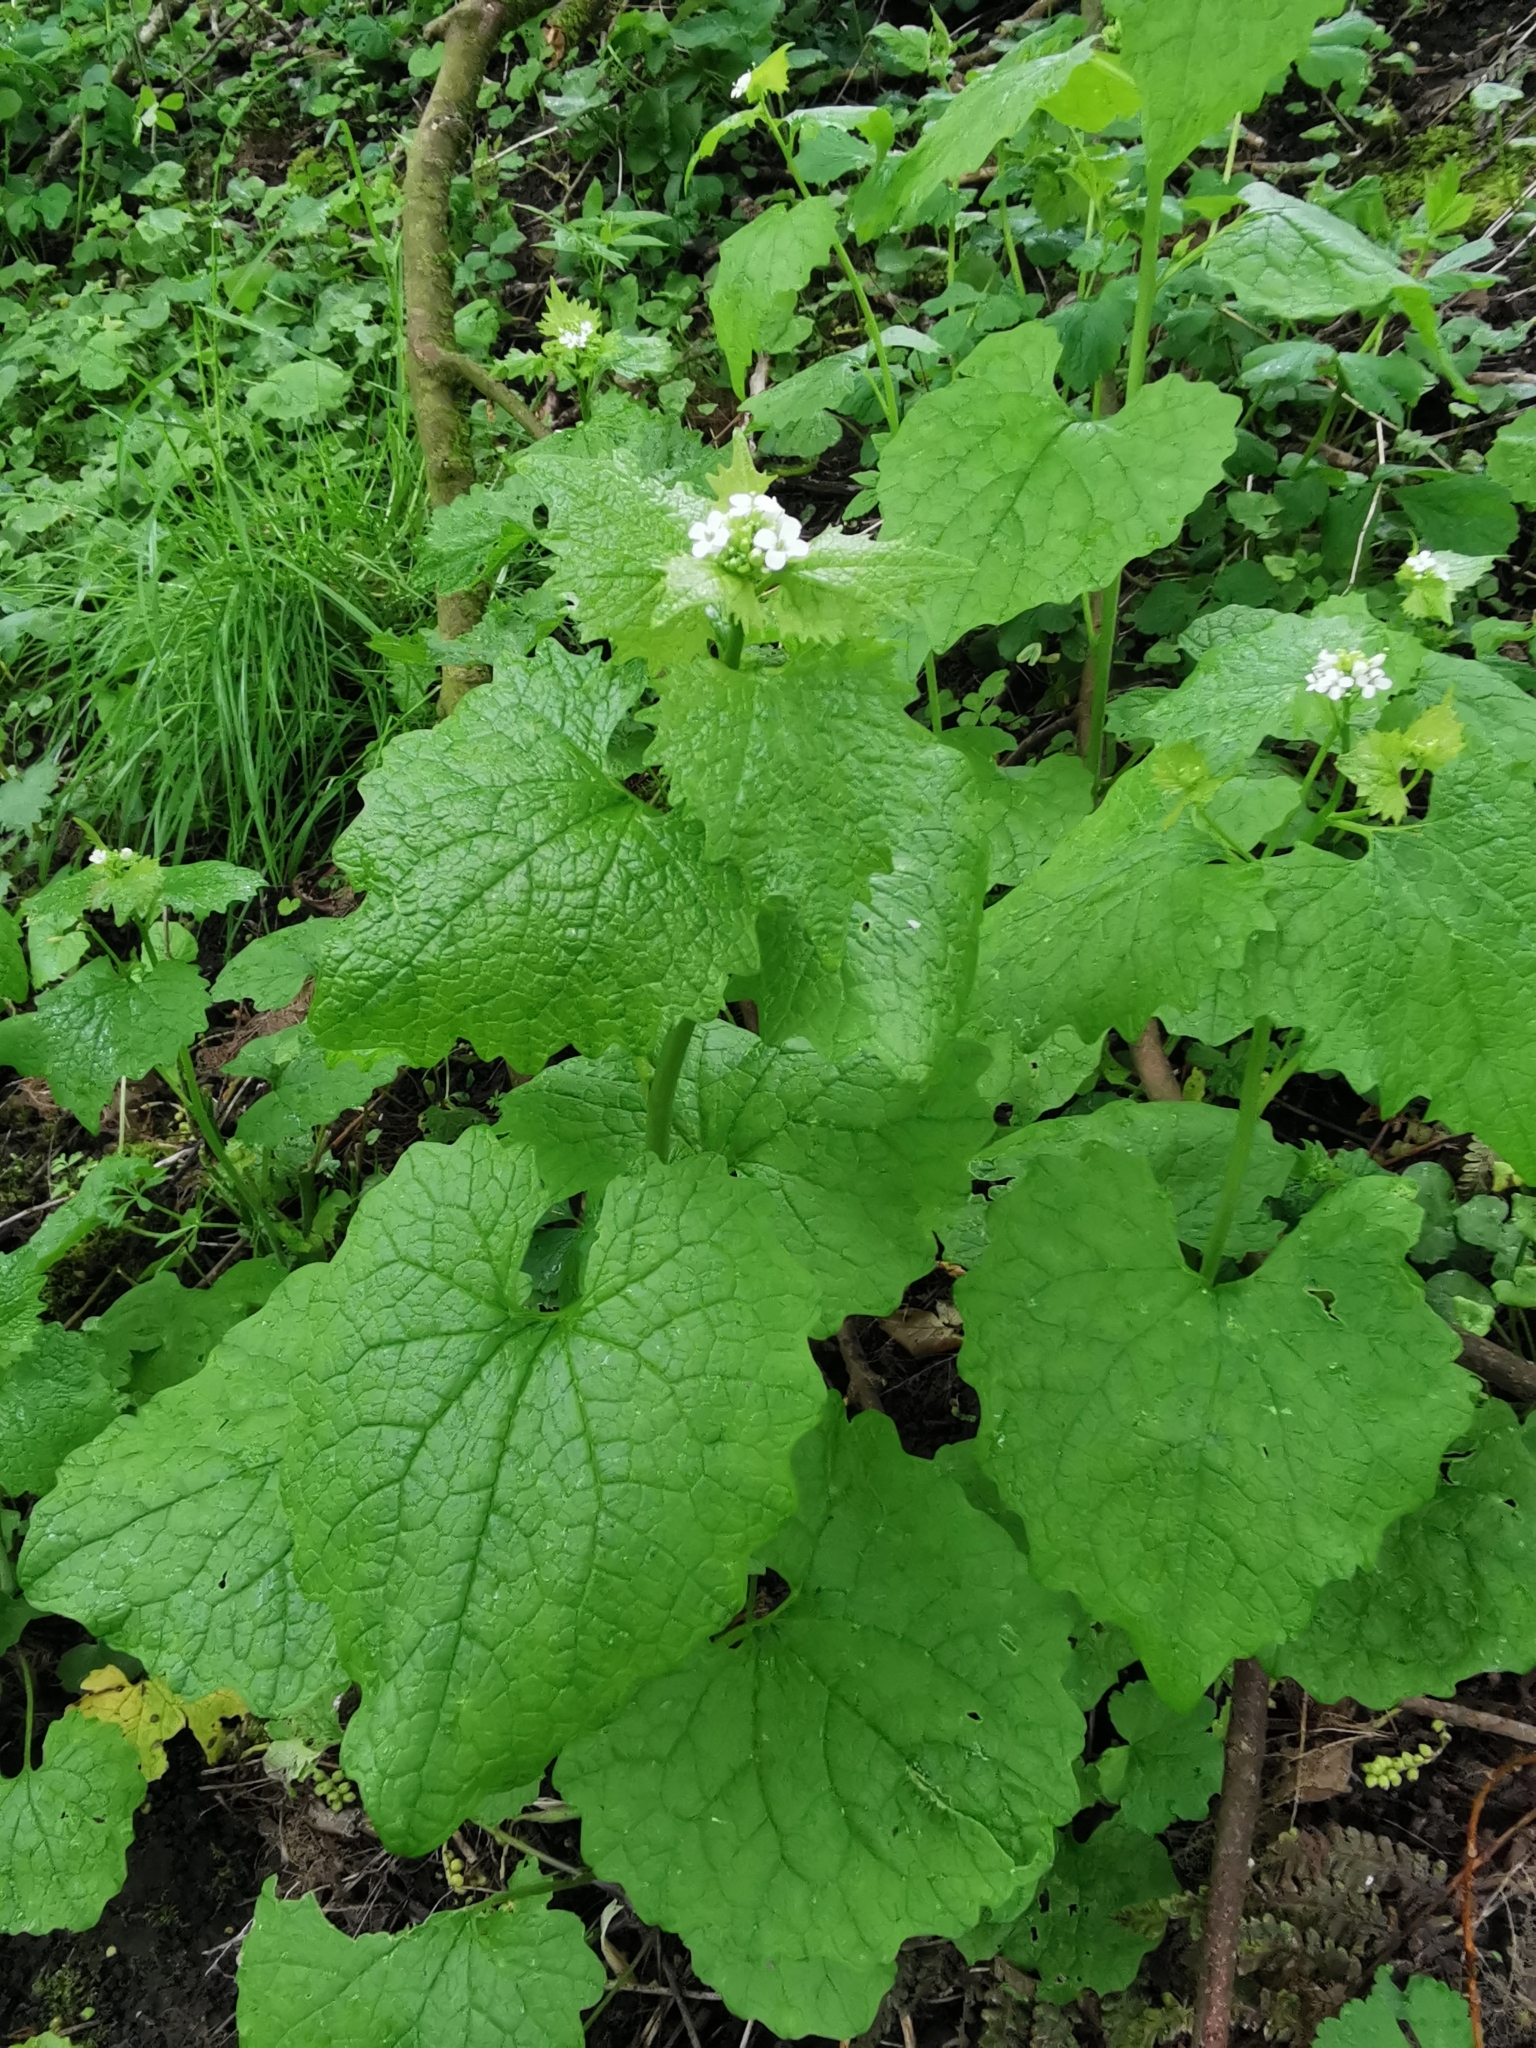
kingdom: Plantae
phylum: Tracheophyta
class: Magnoliopsida
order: Brassicales
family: Brassicaceae
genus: Alliaria
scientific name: Alliaria petiolata
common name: Garlic mustard
